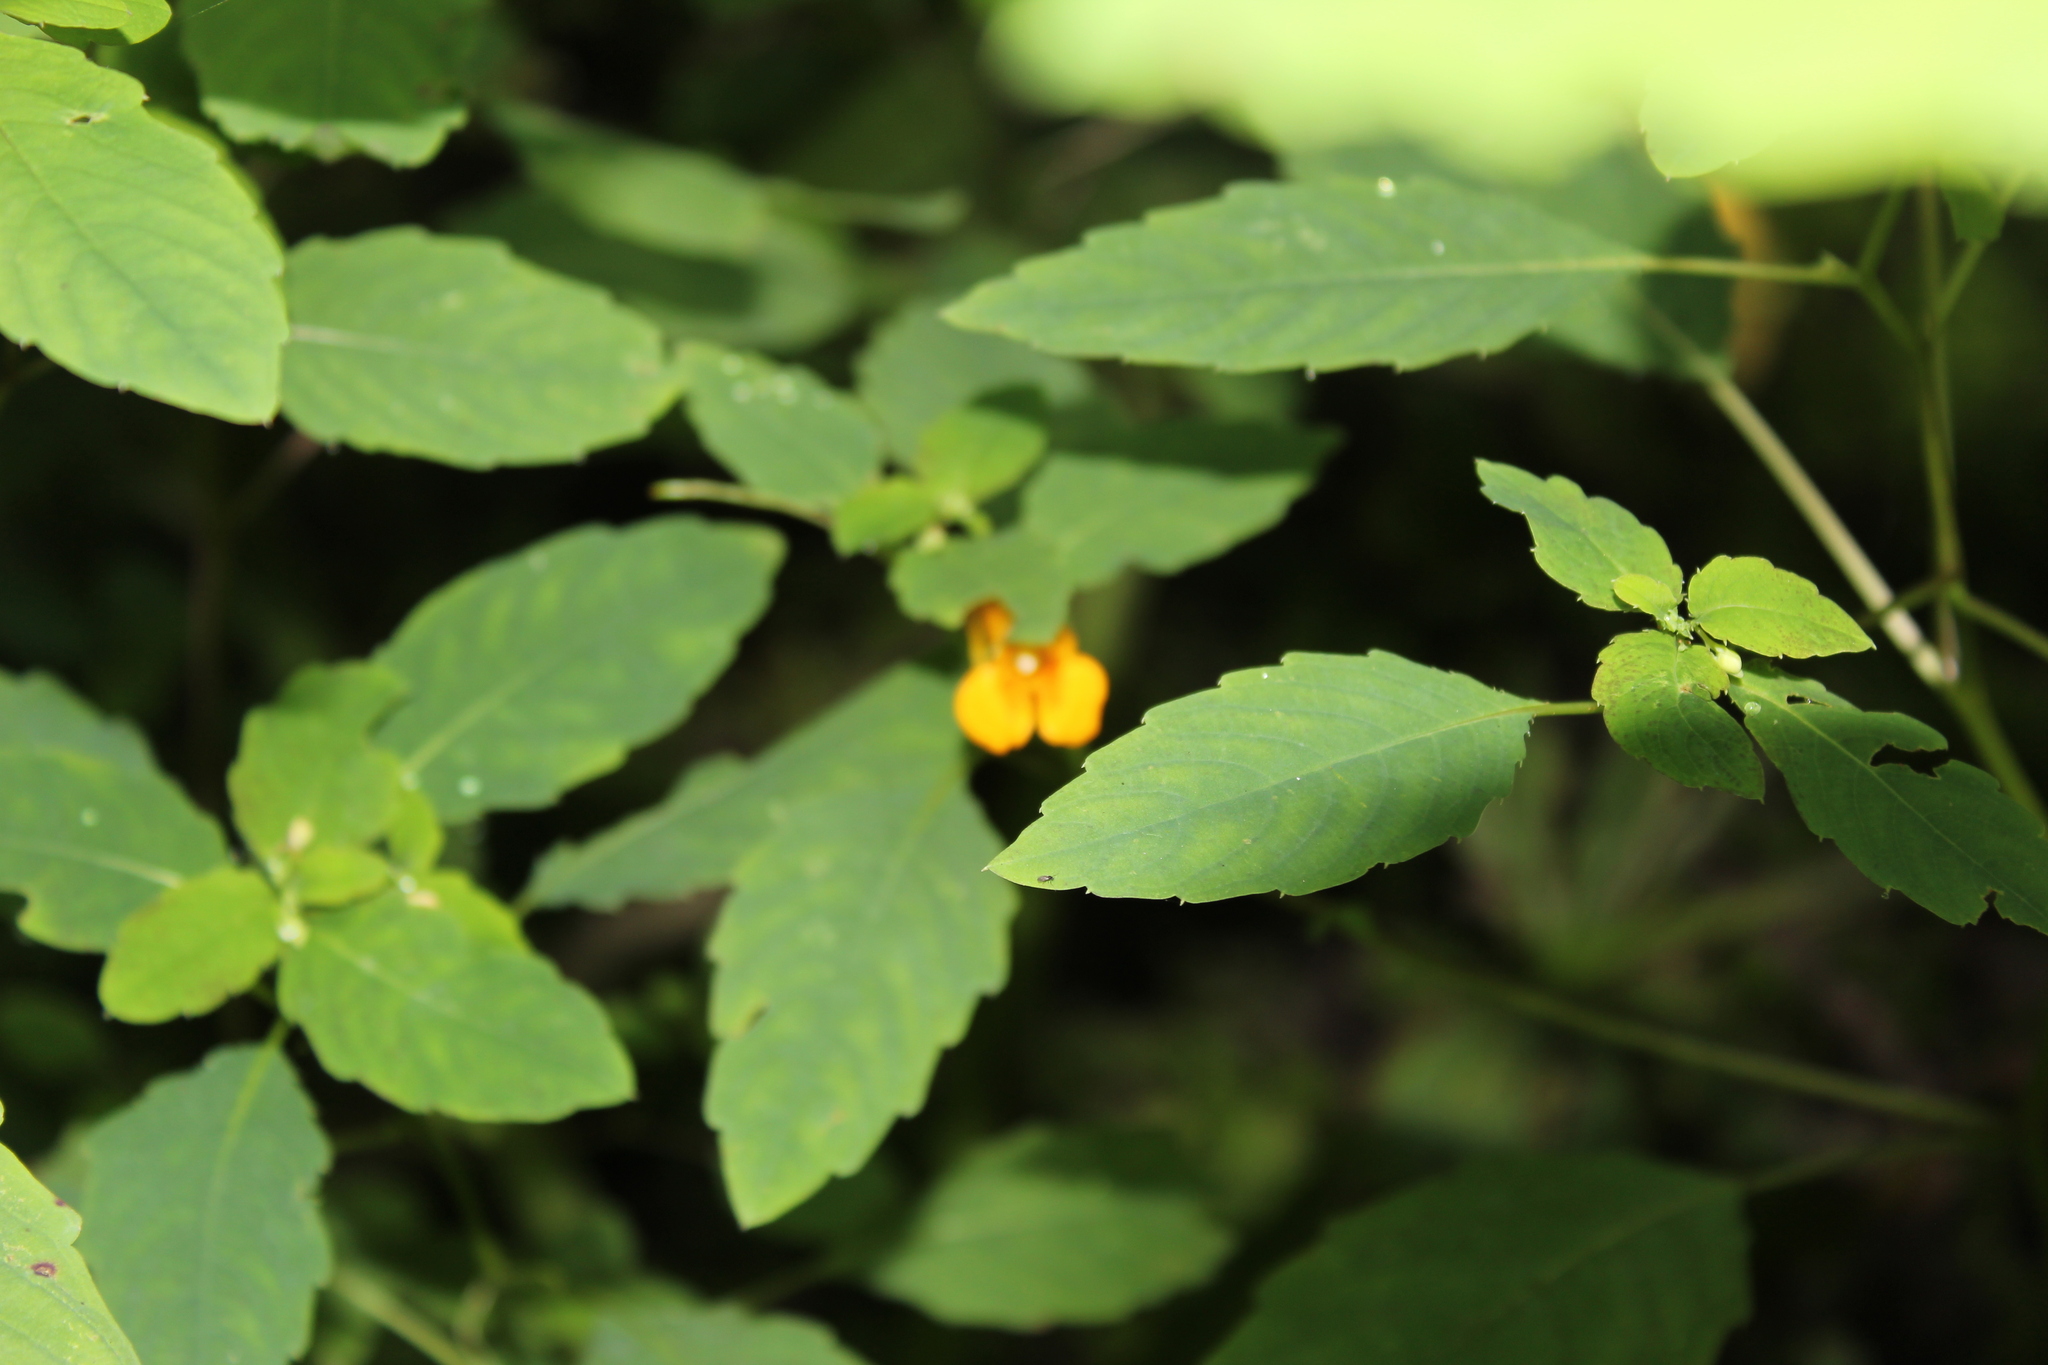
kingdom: Plantae
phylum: Tracheophyta
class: Magnoliopsida
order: Ericales
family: Balsaminaceae
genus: Impatiens
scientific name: Impatiens capensis
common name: Orange balsam
